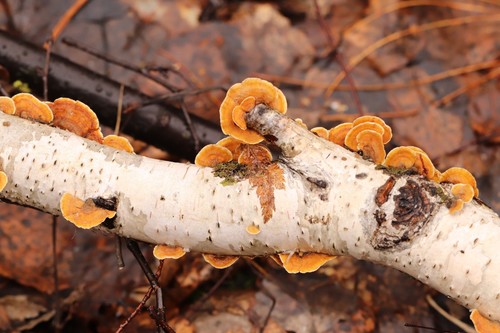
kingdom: Fungi
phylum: Basidiomycota
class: Agaricomycetes
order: Russulales
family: Stereaceae
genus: Stereum
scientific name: Stereum hirsutum
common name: Hairy curtain crust
